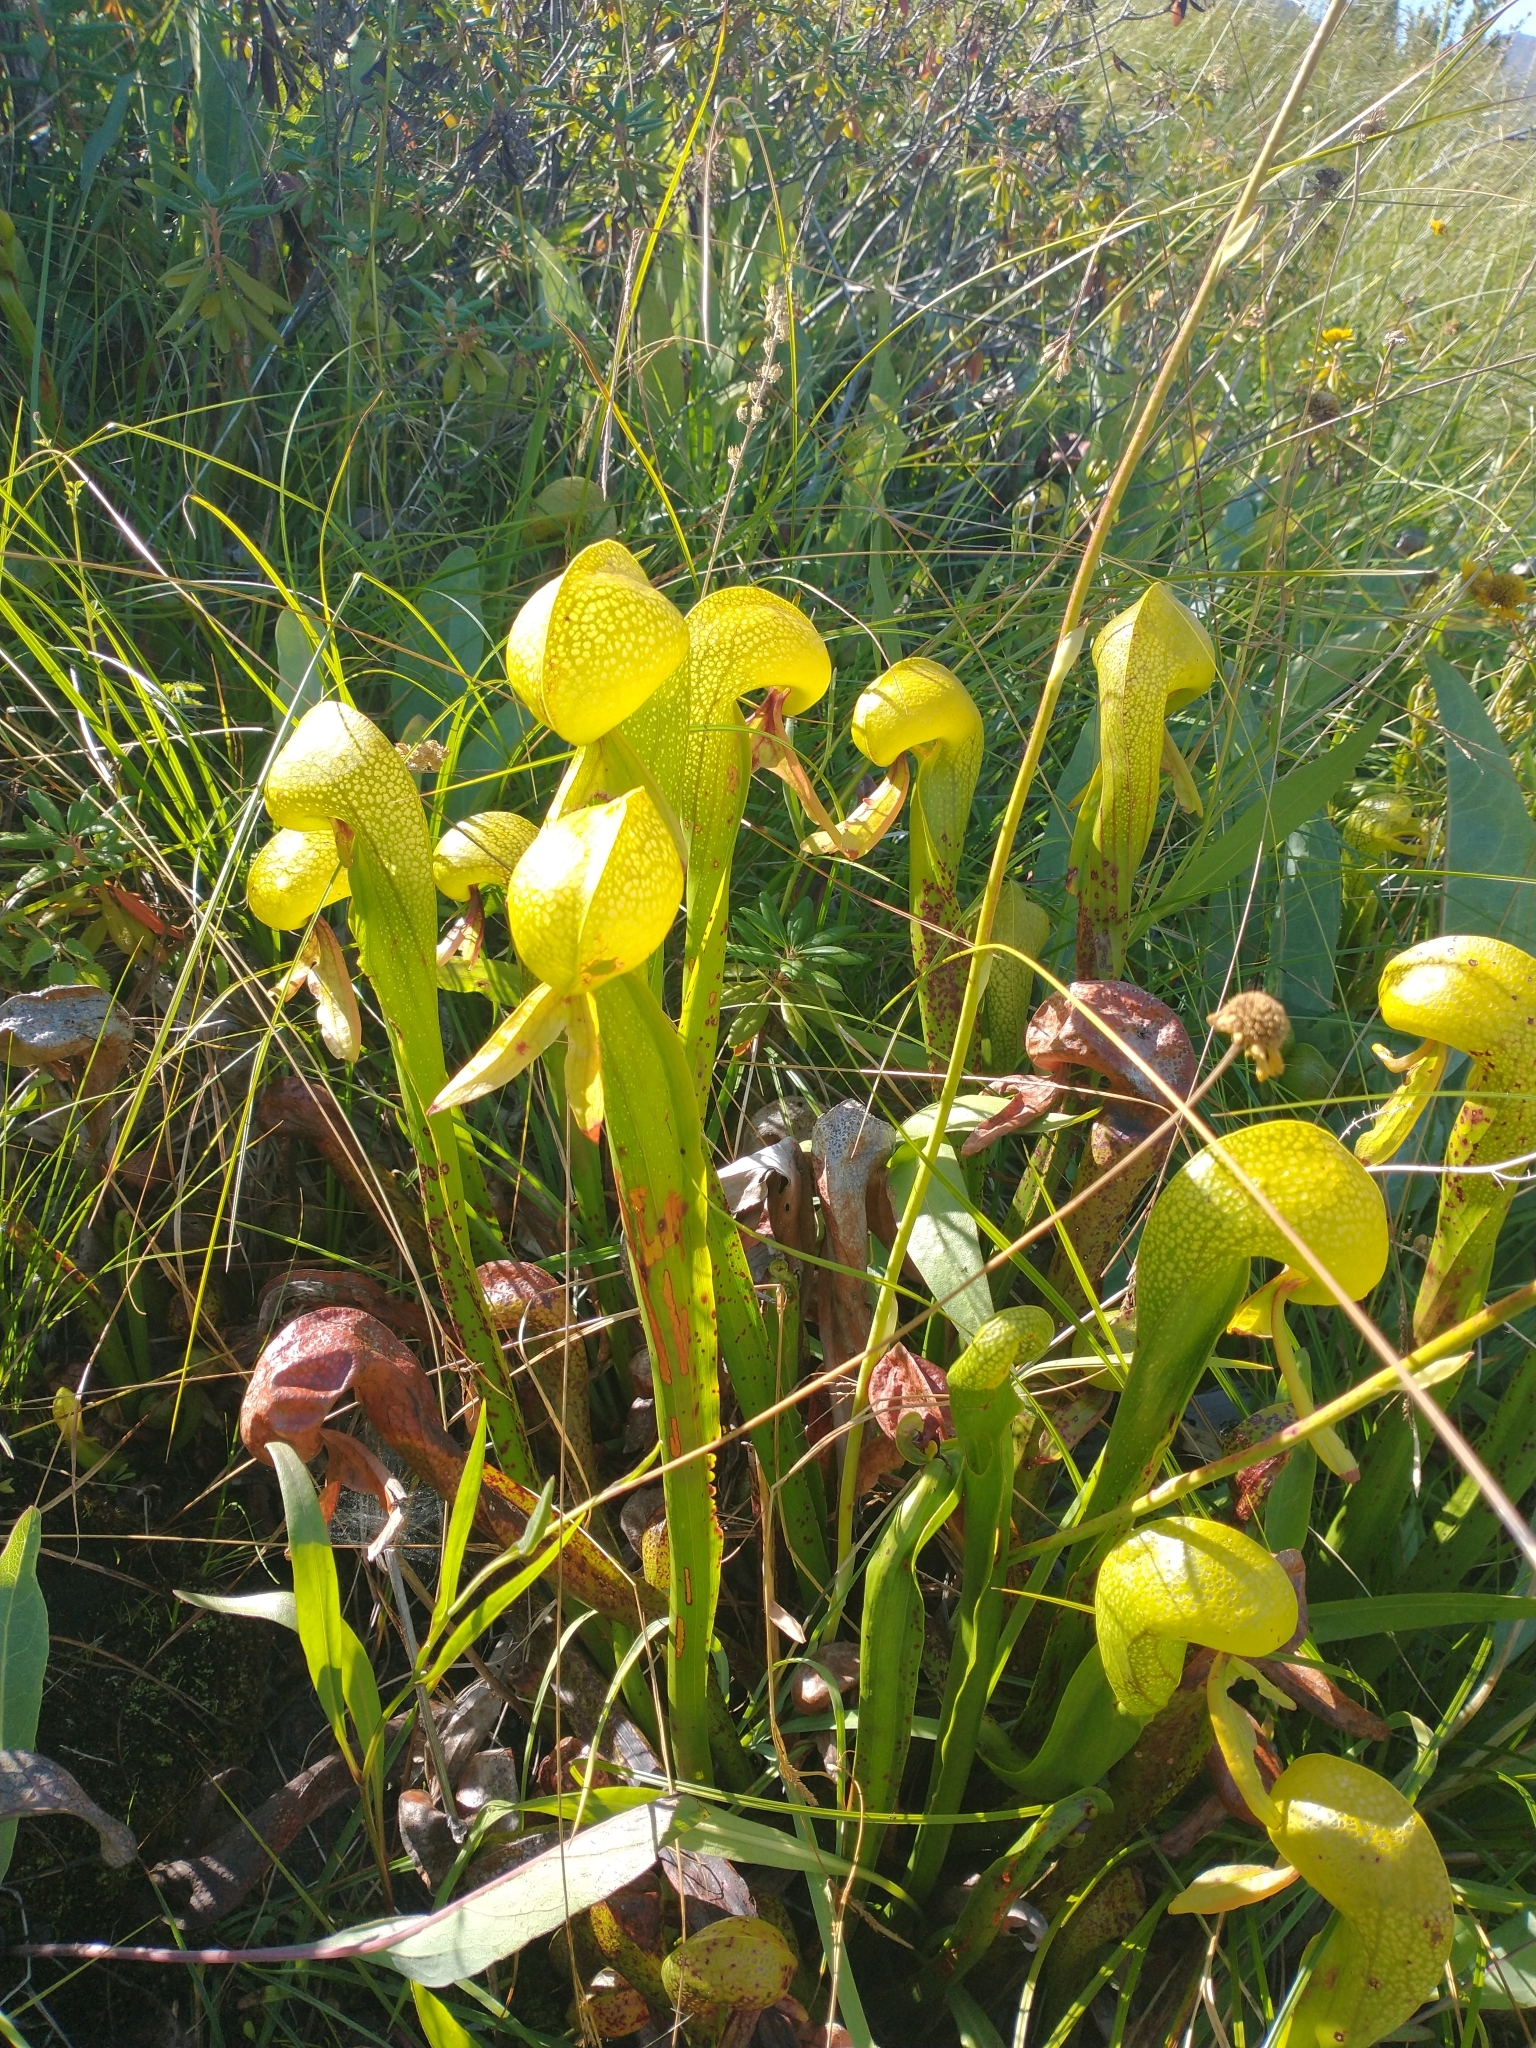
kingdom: Plantae
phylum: Tracheophyta
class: Magnoliopsida
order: Ericales
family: Sarraceniaceae
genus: Darlingtonia
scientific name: Darlingtonia californica
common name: California pitcher plant
